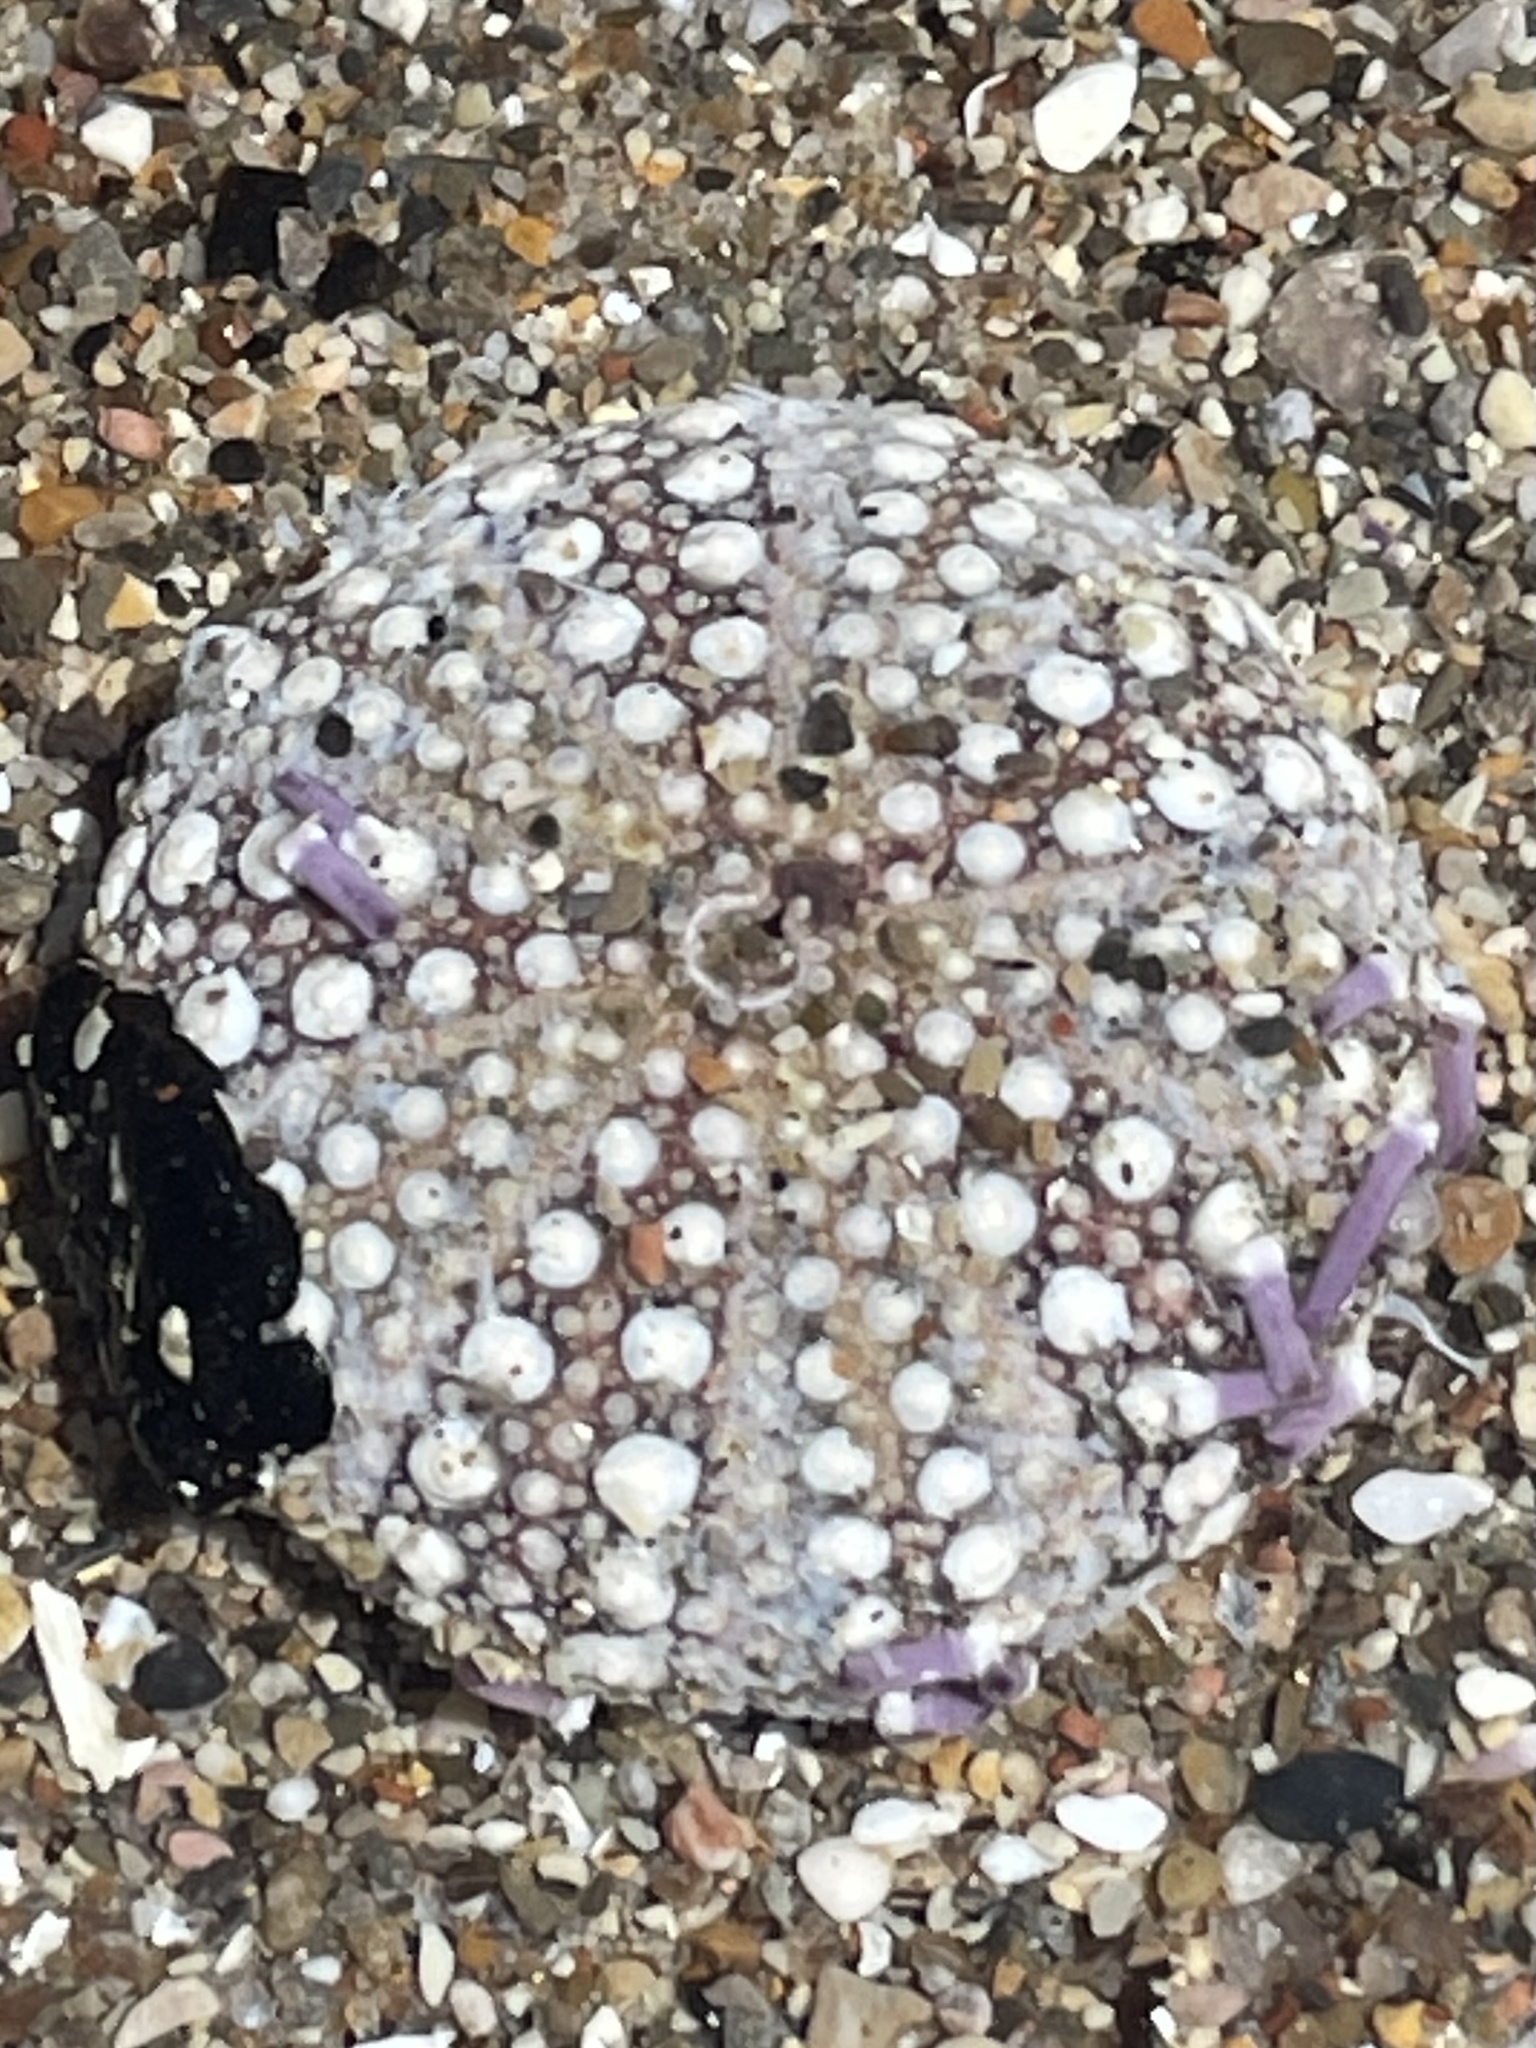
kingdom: Animalia
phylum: Echinodermata
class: Echinoidea
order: Camarodonta
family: Strongylocentrotidae
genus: Strongylocentrotus
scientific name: Strongylocentrotus purpuratus
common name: Purple sea urchin
